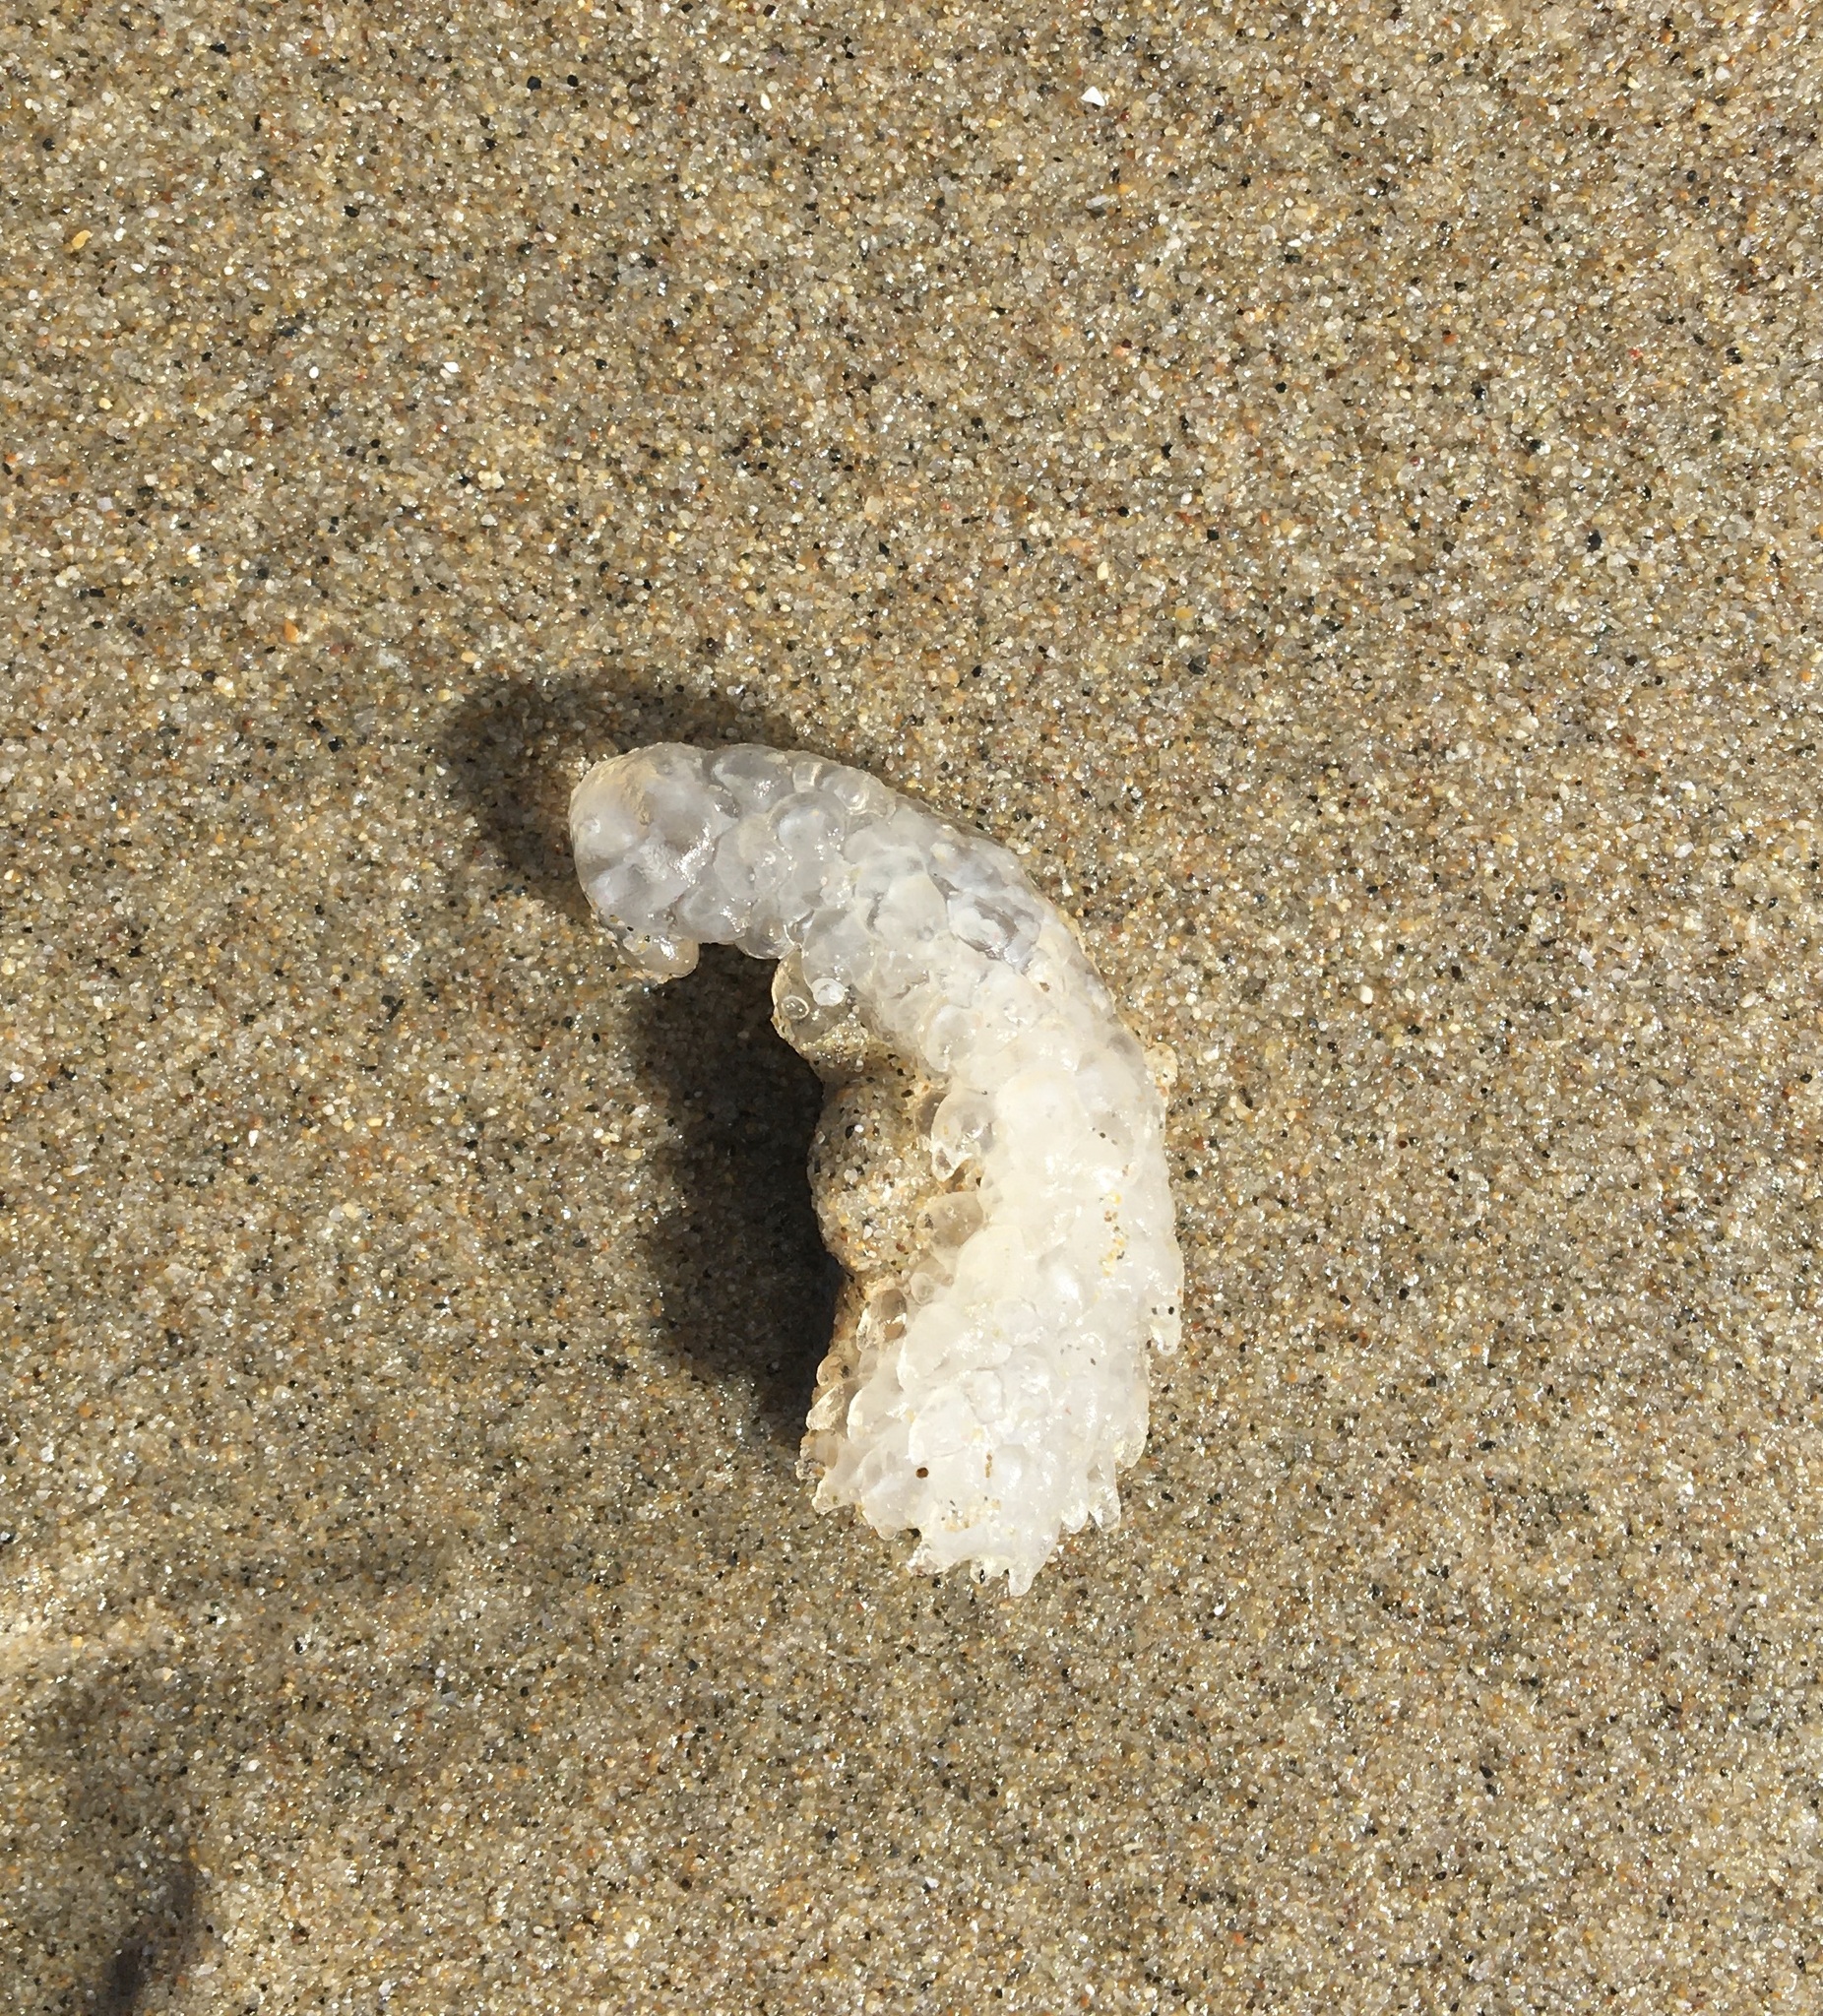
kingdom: Animalia
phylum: Chordata
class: Thaliacea
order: Pyrosomatida
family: Pyrosomatidae
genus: Pyrosoma
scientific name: Pyrosoma atlanticum
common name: Atlantic pyrosomes
